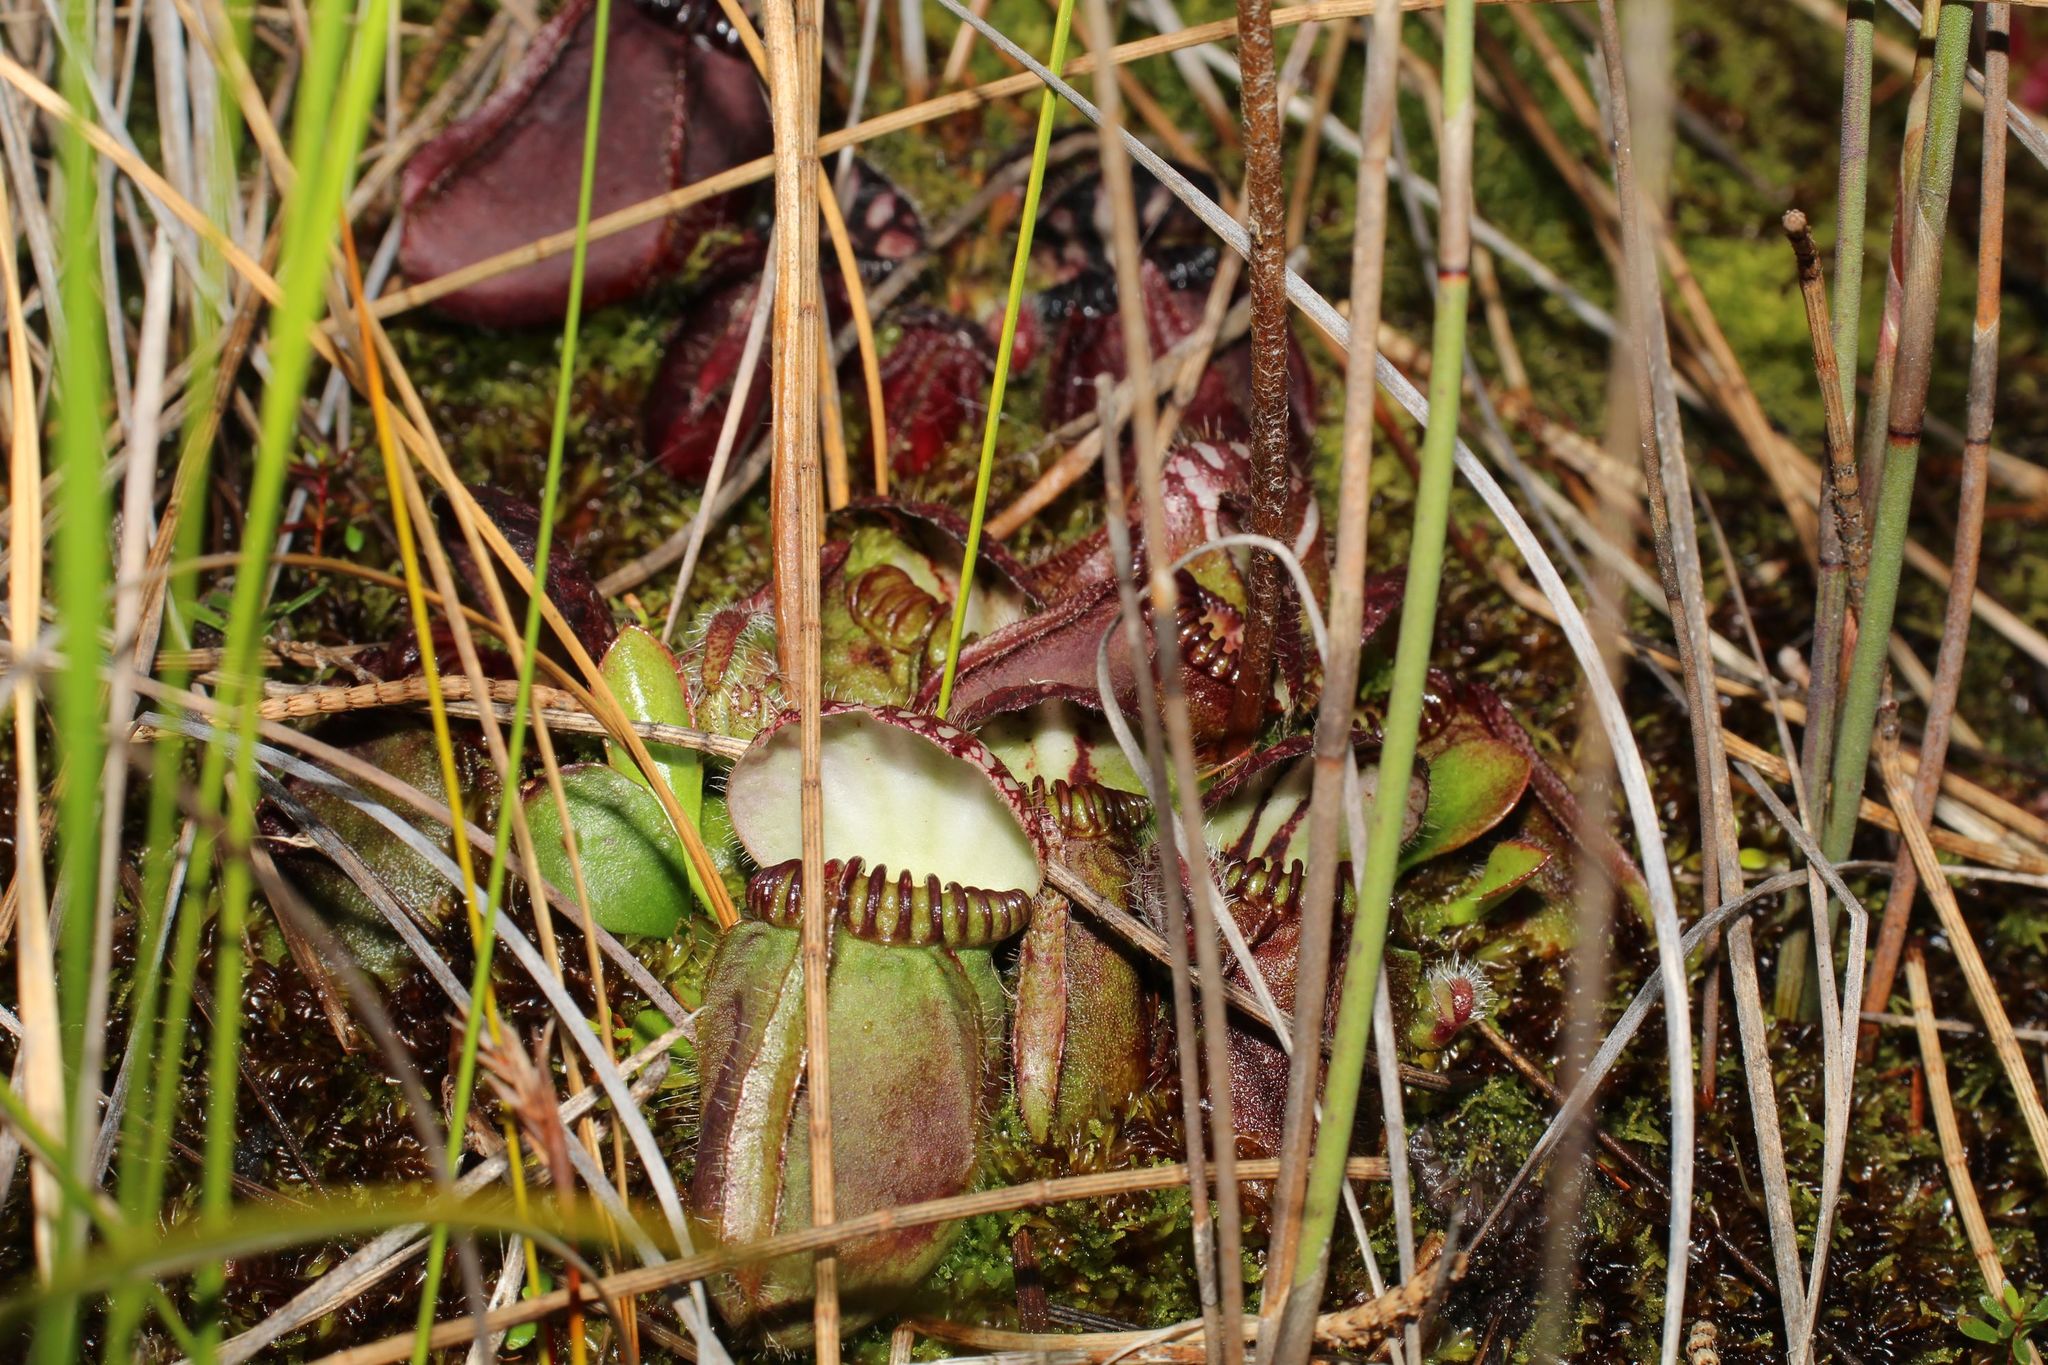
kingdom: Plantae
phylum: Tracheophyta
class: Magnoliopsida
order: Oxalidales
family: Cephalotaceae
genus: Cephalotus
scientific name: Cephalotus follicularis
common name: Australian pitcher plant
